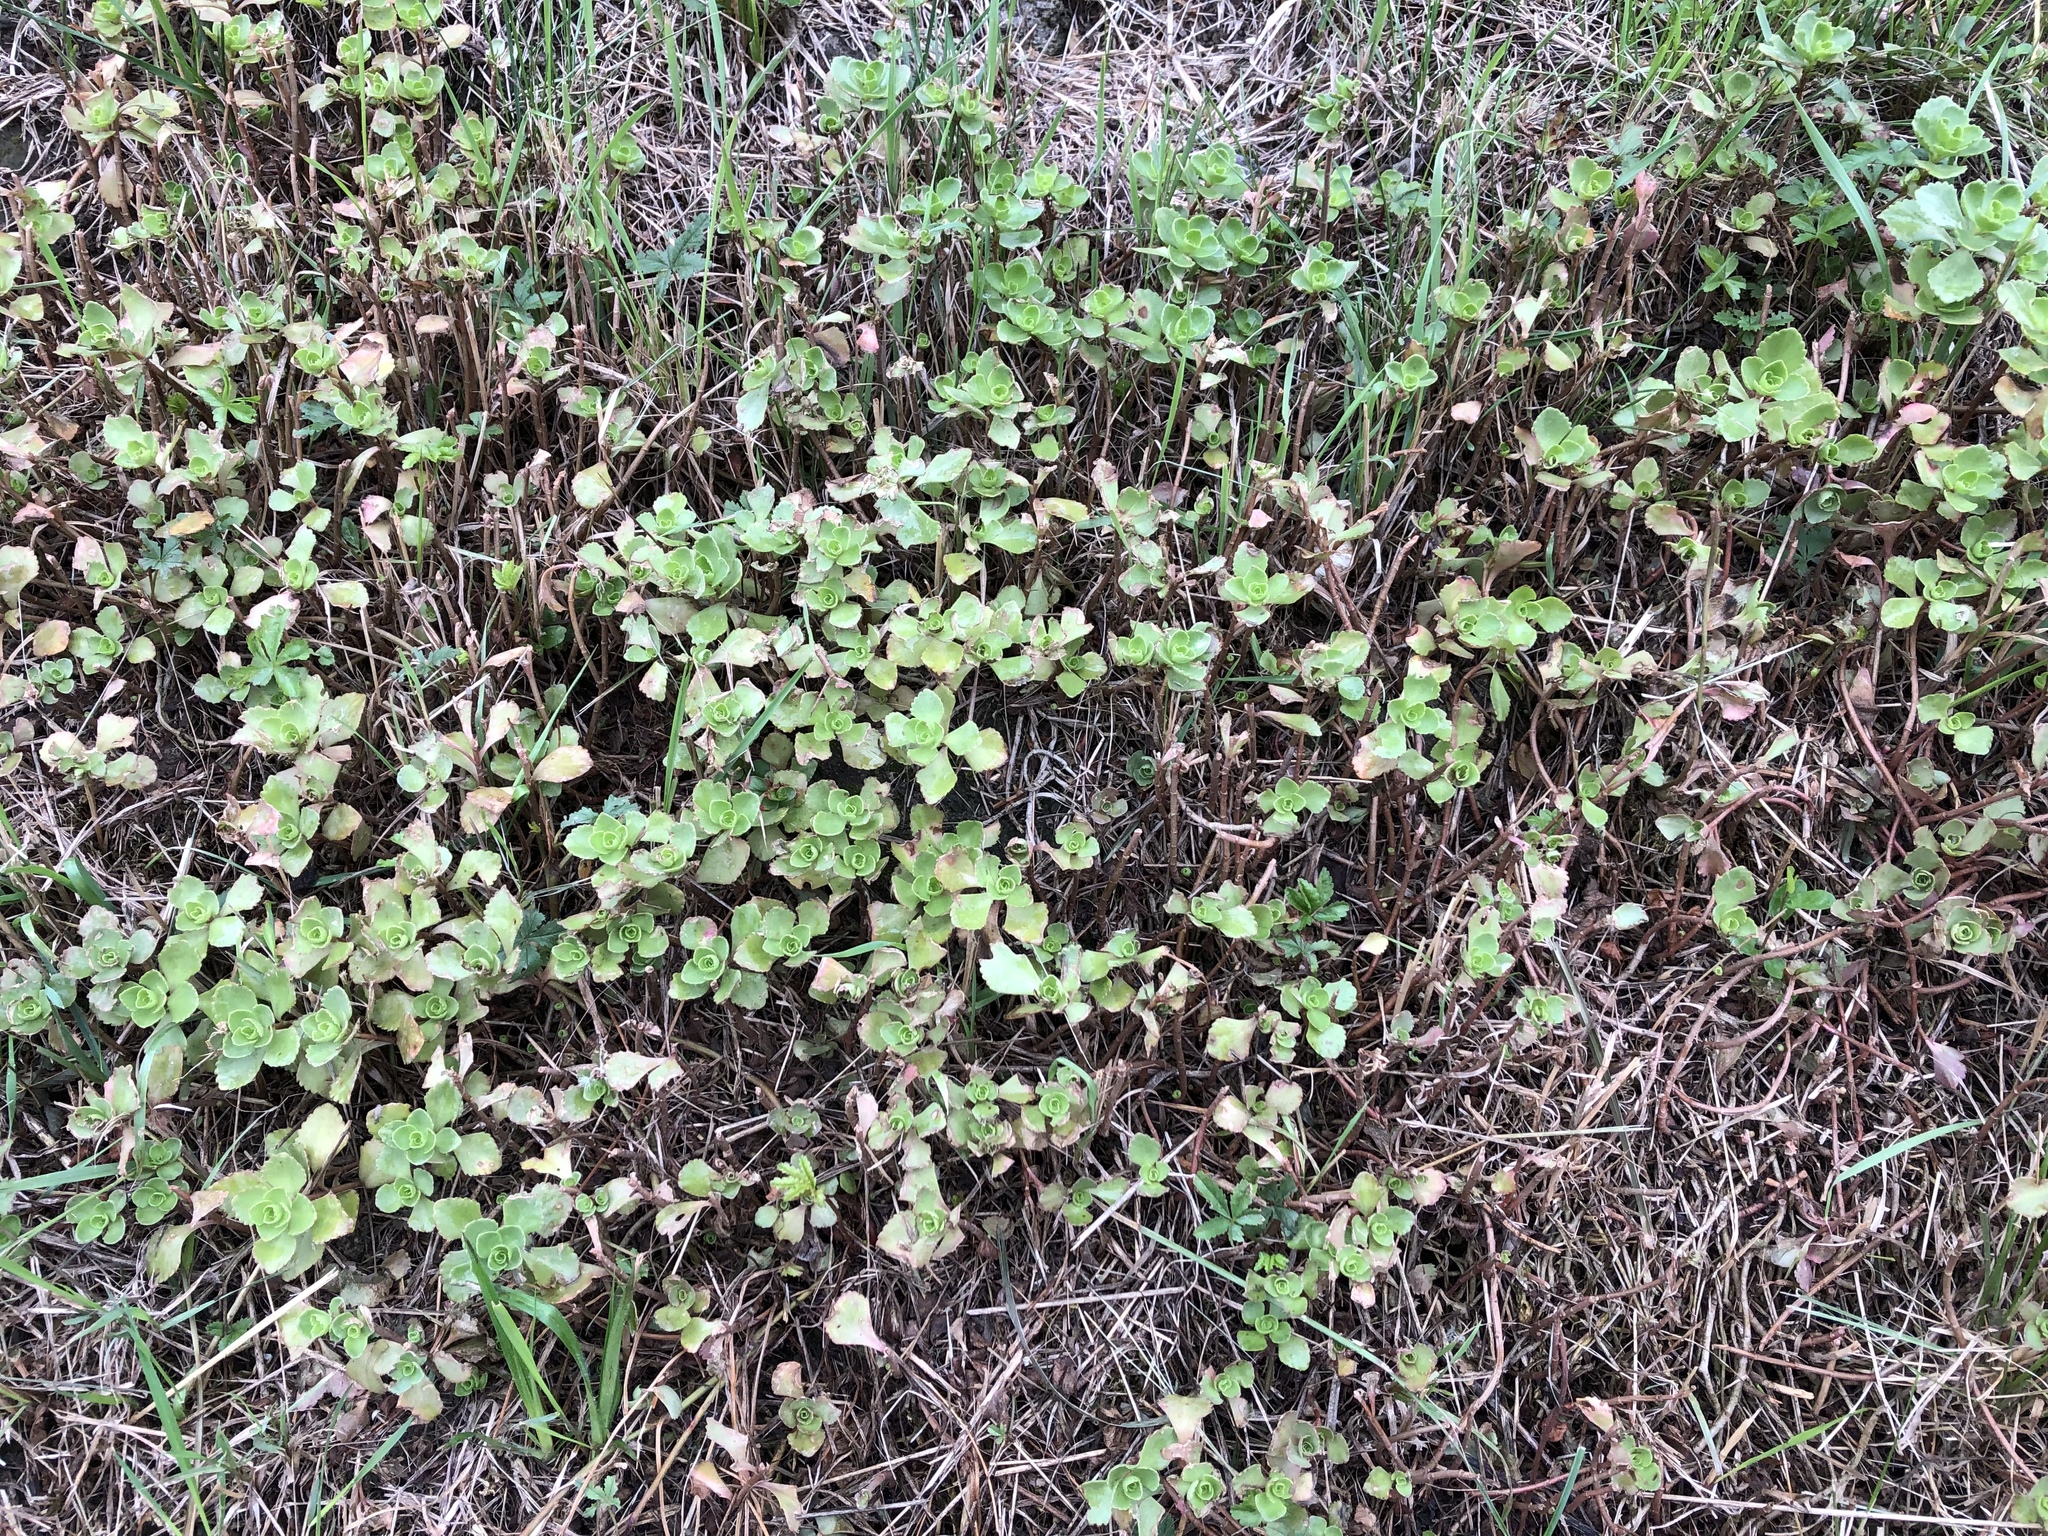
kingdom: Plantae
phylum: Tracheophyta
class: Magnoliopsida
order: Saxifragales
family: Crassulaceae
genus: Phedimus
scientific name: Phedimus spurius
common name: Caucasian stonecrop
